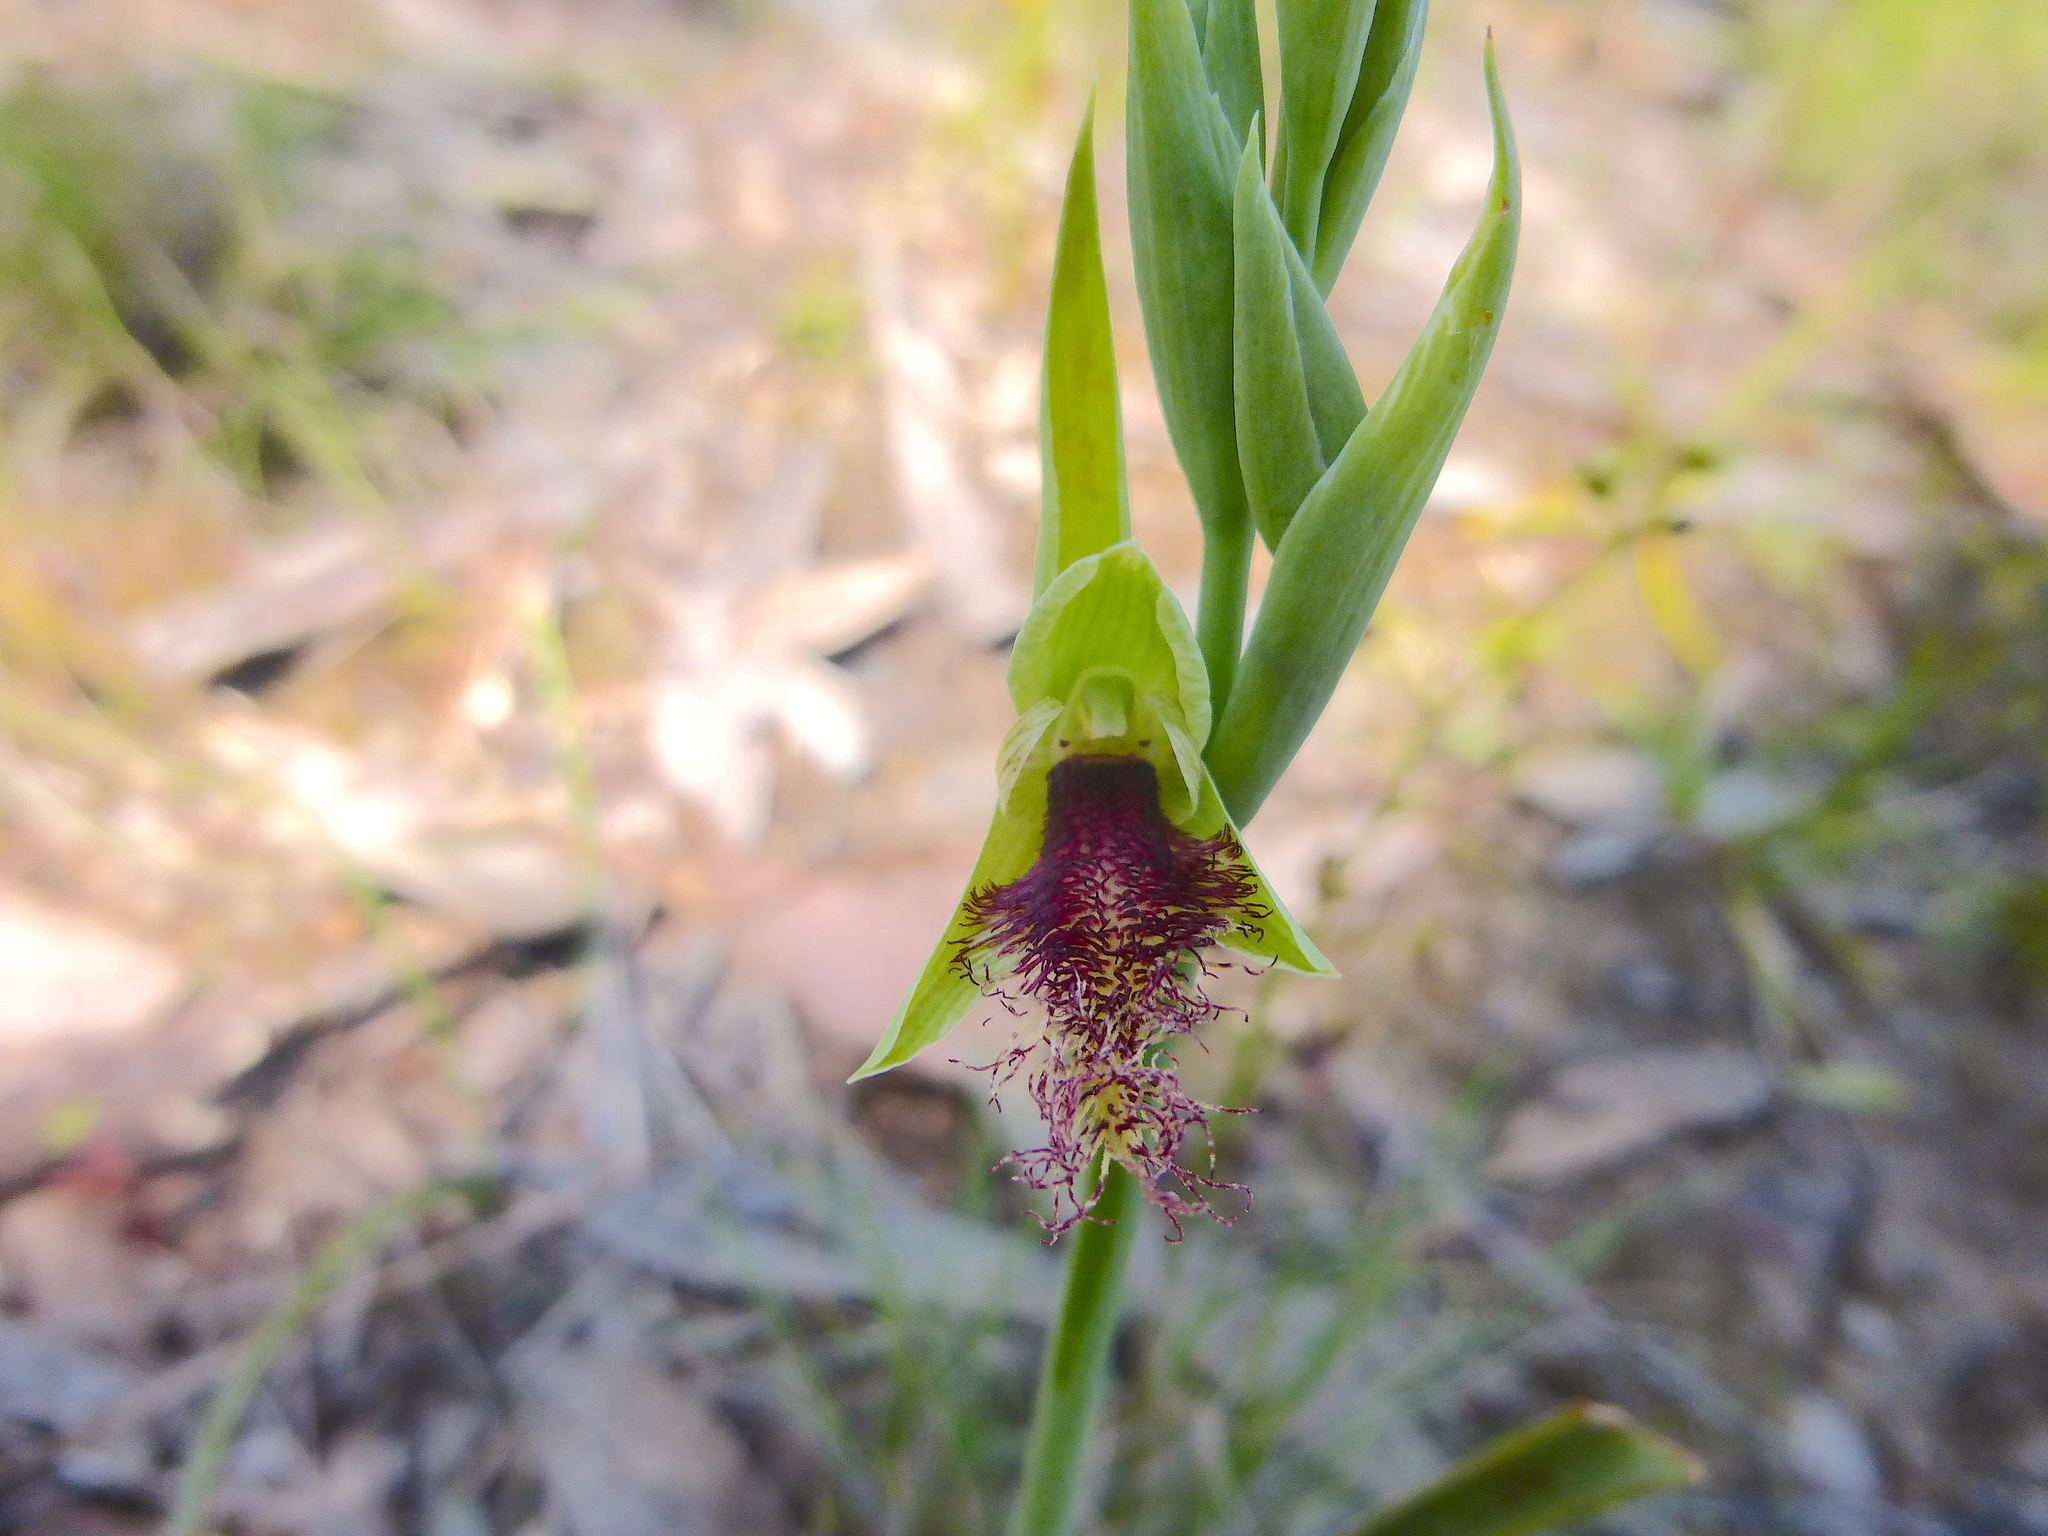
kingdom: Plantae
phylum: Tracheophyta
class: Liliopsida
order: Asparagales
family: Orchidaceae
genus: Calochilus
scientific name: Calochilus robertsonii
